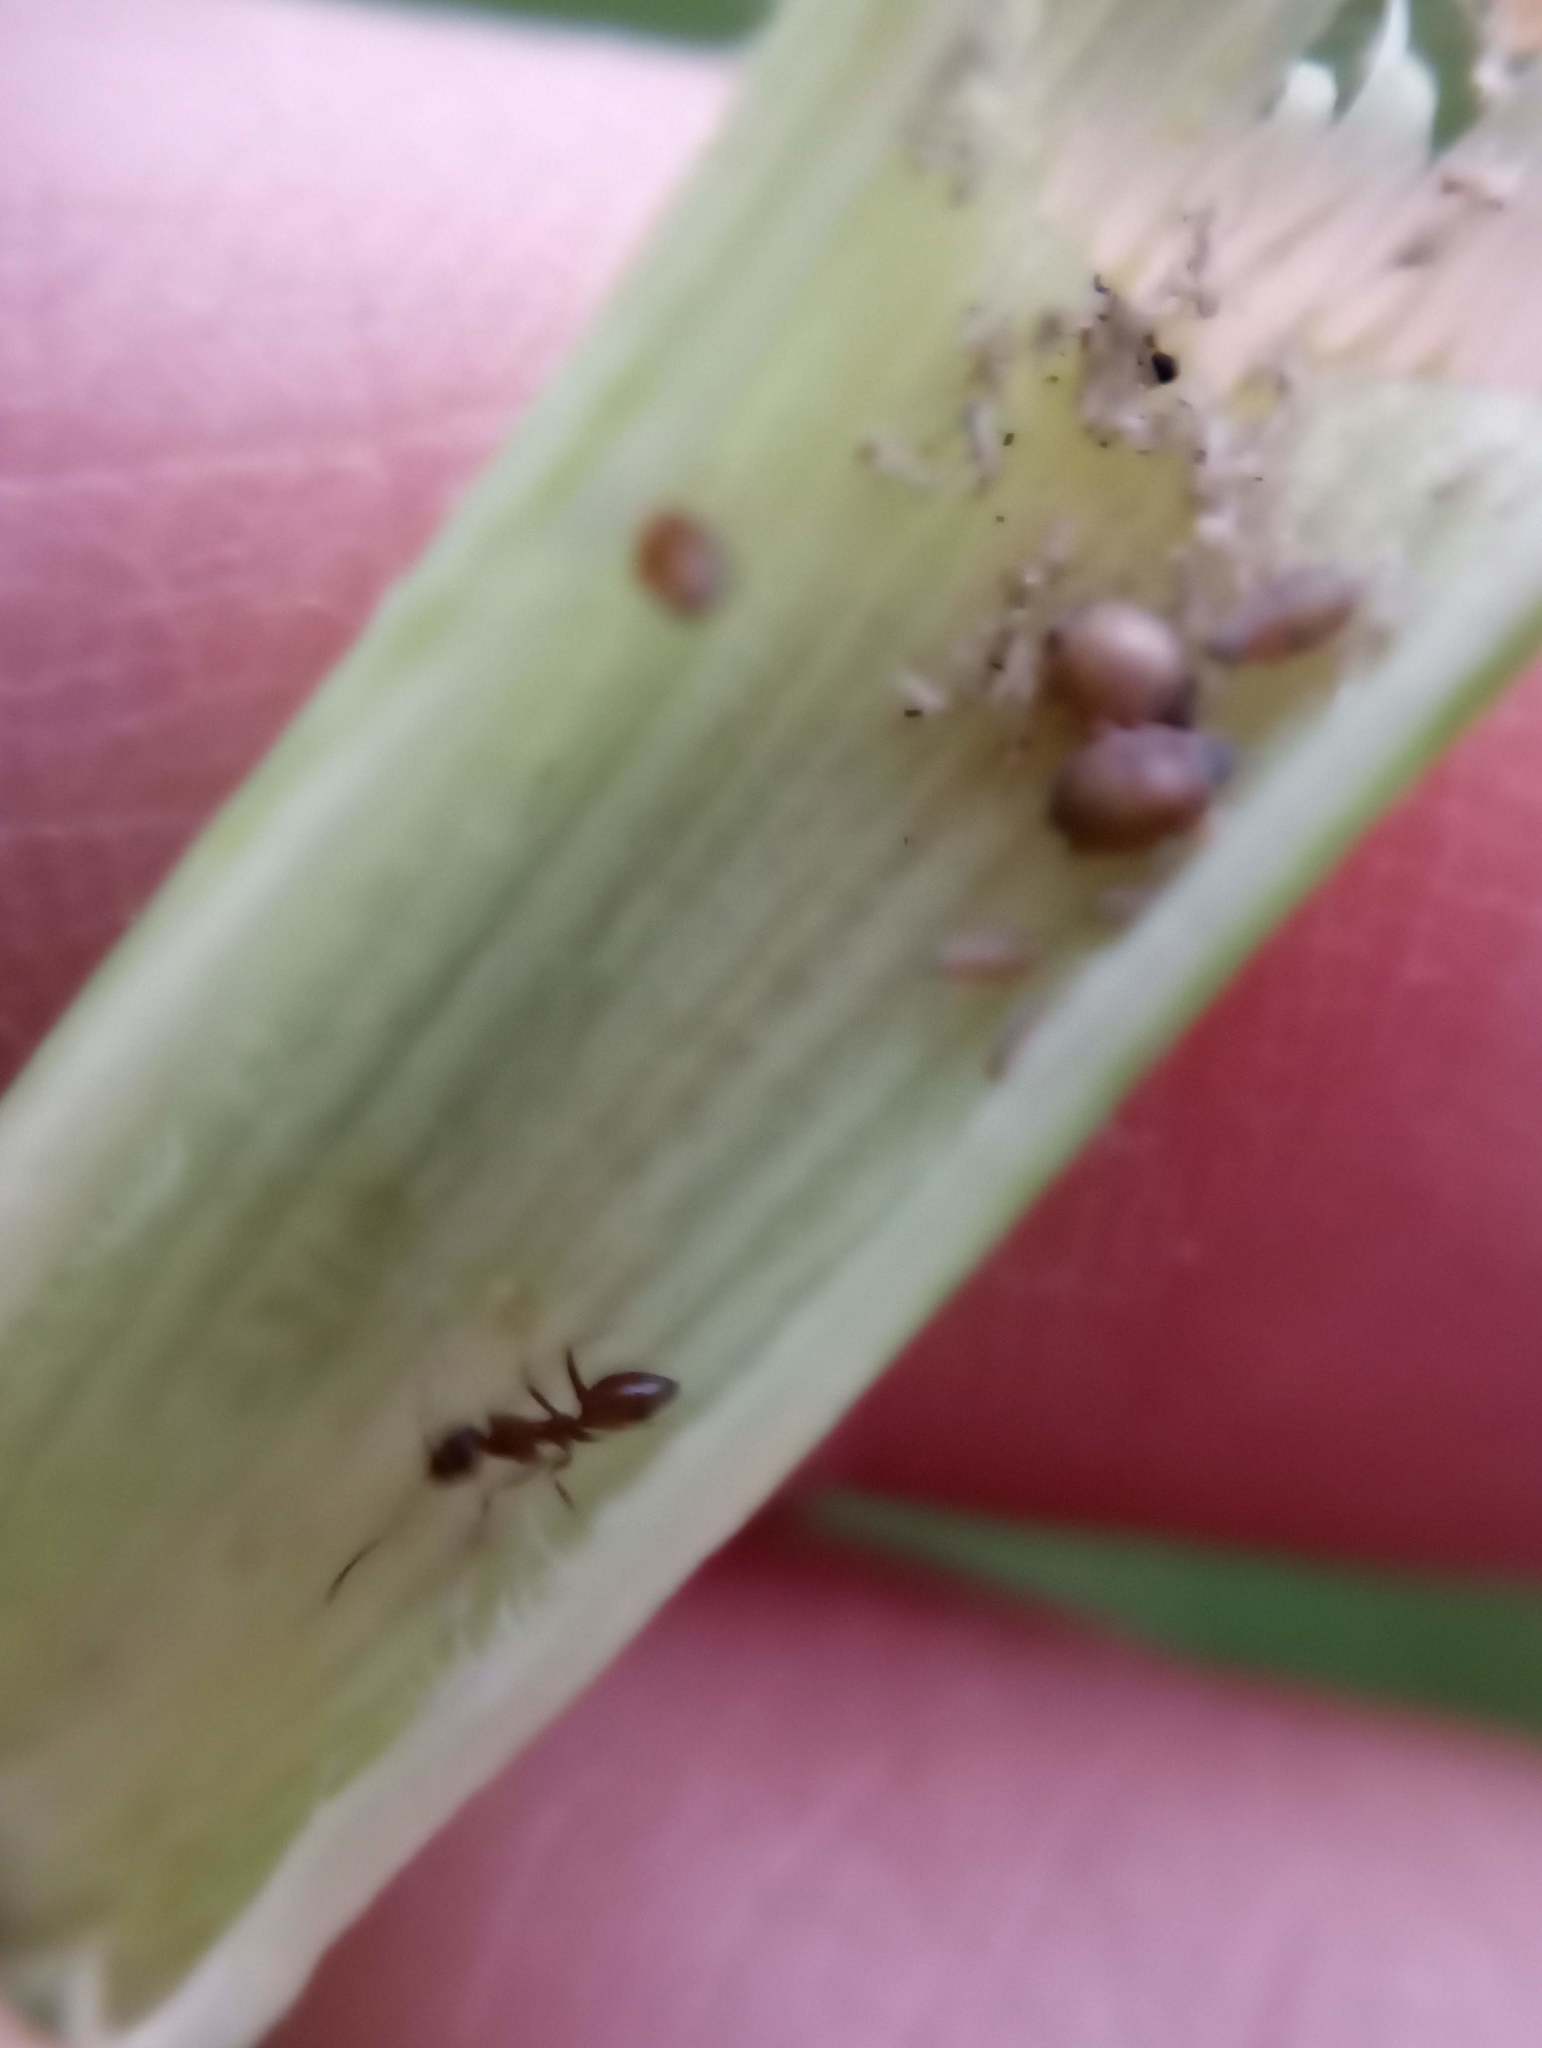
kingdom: Animalia
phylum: Arthropoda
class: Insecta
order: Hymenoptera
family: Formicidae
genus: Linepithema
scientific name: Linepithema humile
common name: Argentine ant
